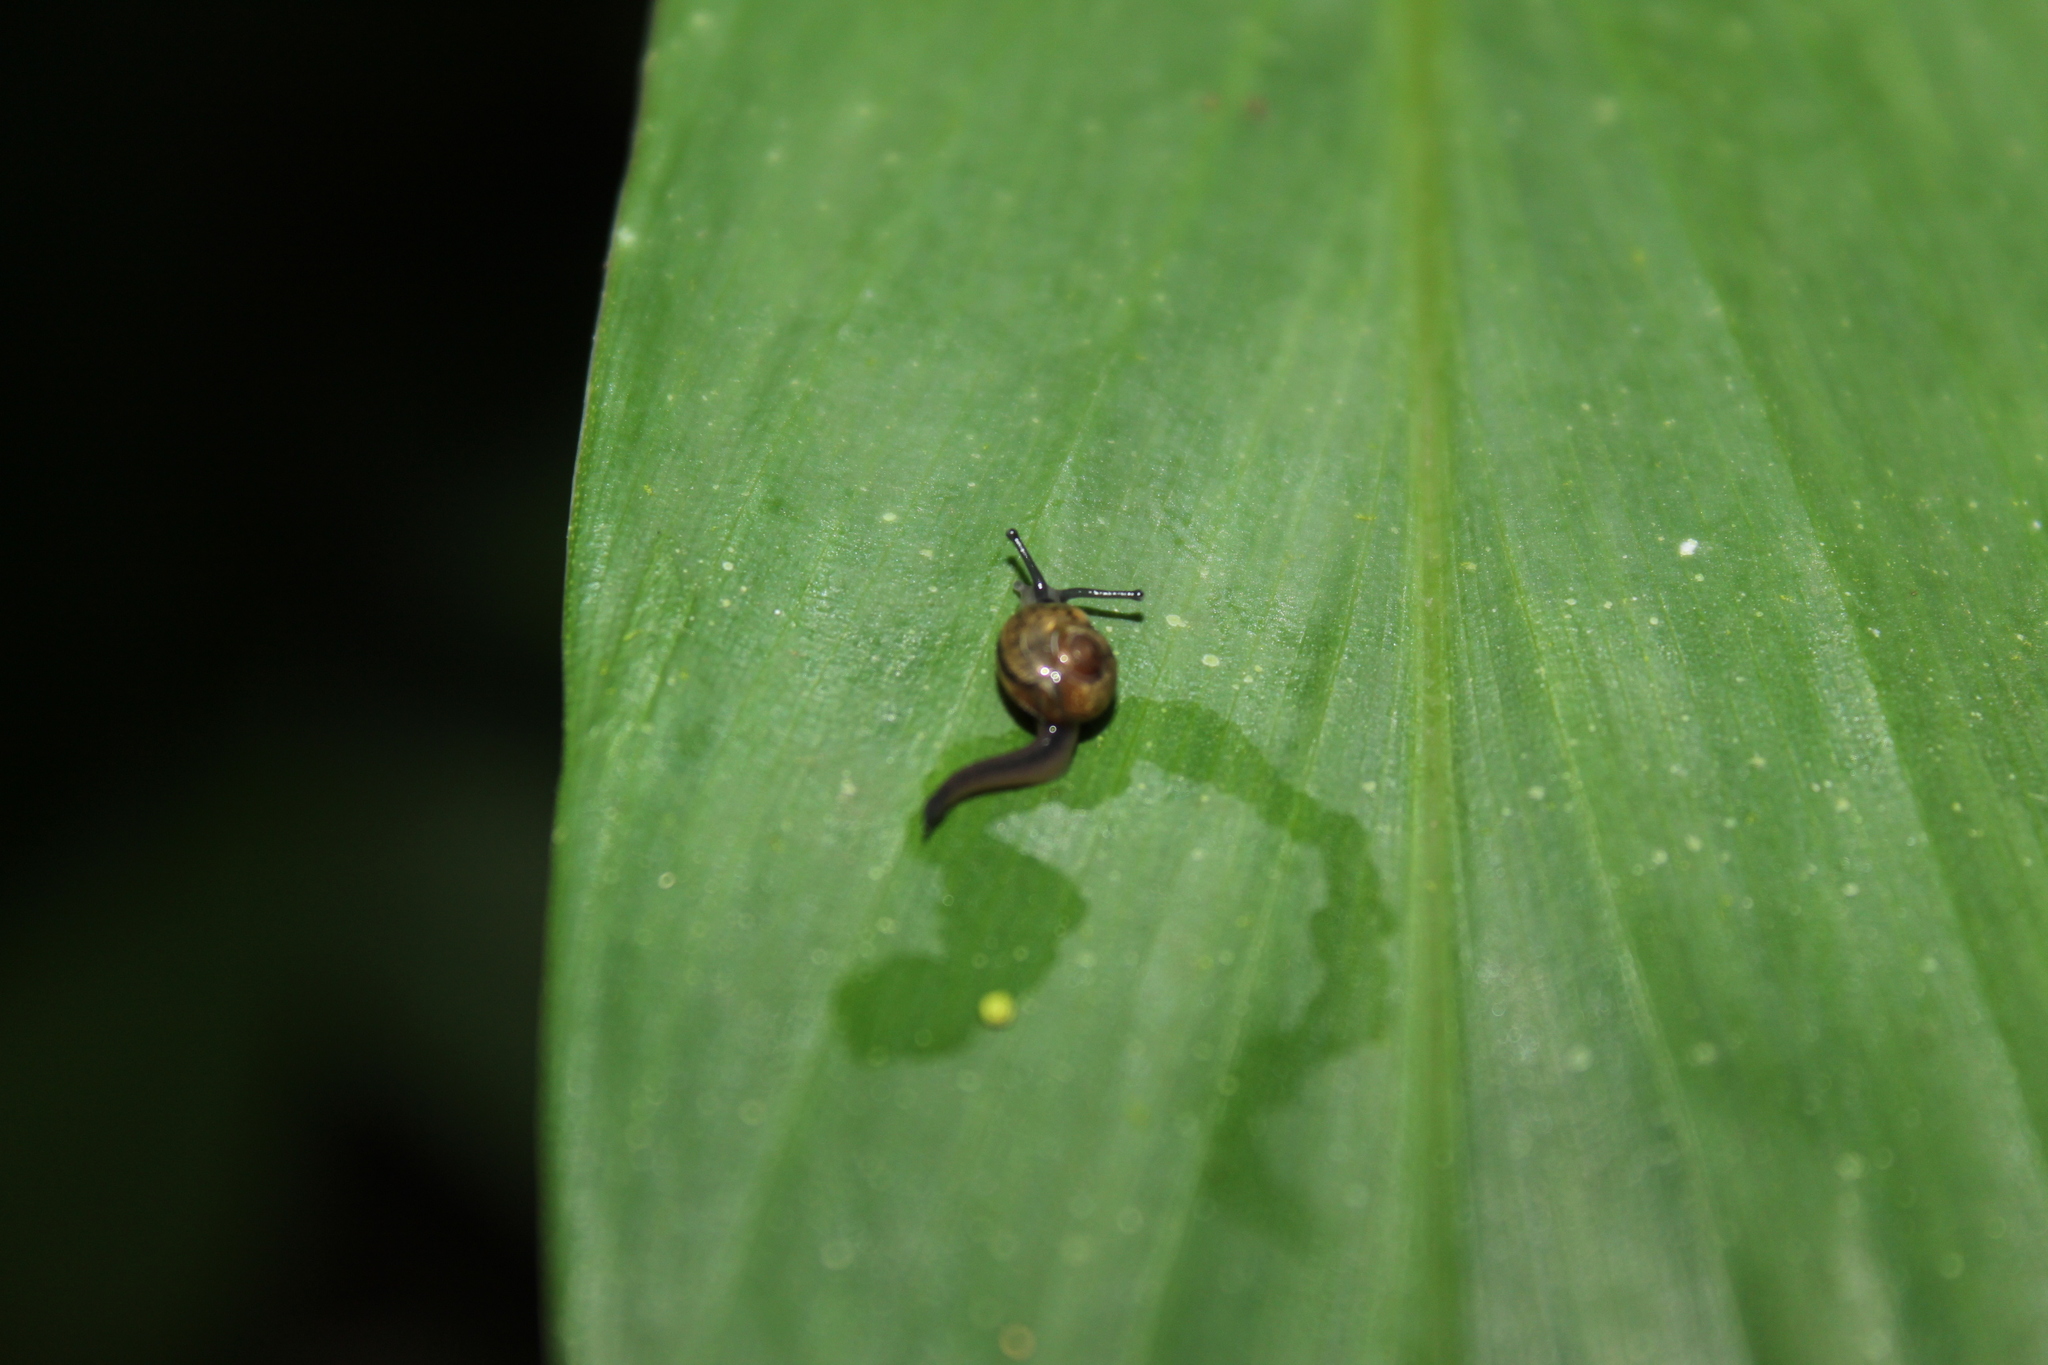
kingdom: Animalia
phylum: Mollusca
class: Gastropoda
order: Stylommatophora
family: Helicarionidae
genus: Ovachlamys
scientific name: Ovachlamys fulgens
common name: Jumping snail
